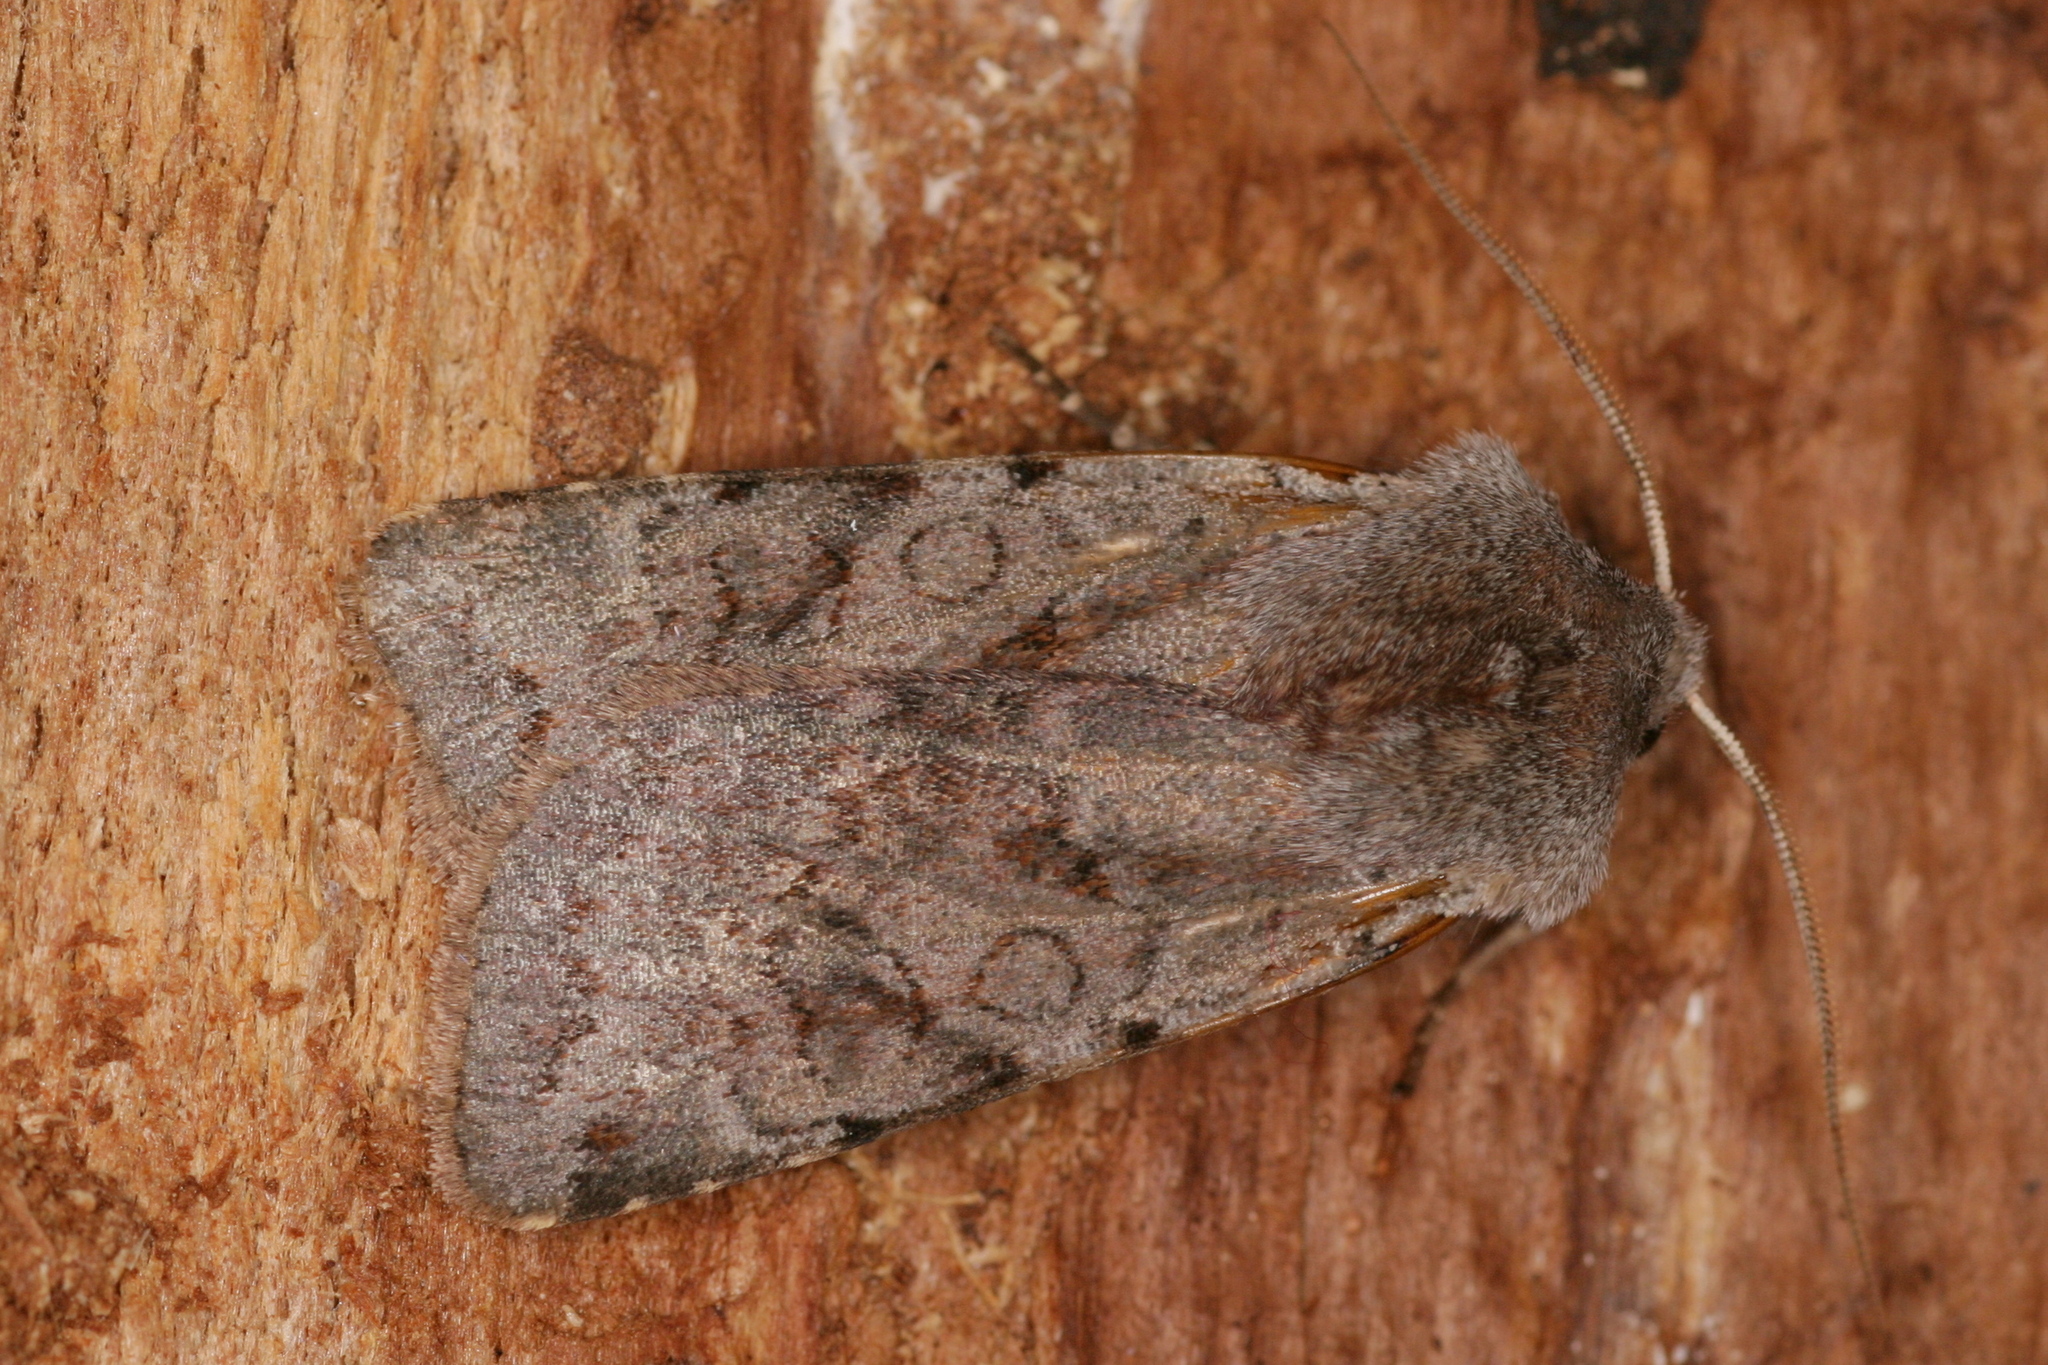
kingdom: Animalia
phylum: Arthropoda
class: Insecta
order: Lepidoptera
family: Noctuidae
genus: Cerastis
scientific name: Cerastis rubricosa
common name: Red chestnut
